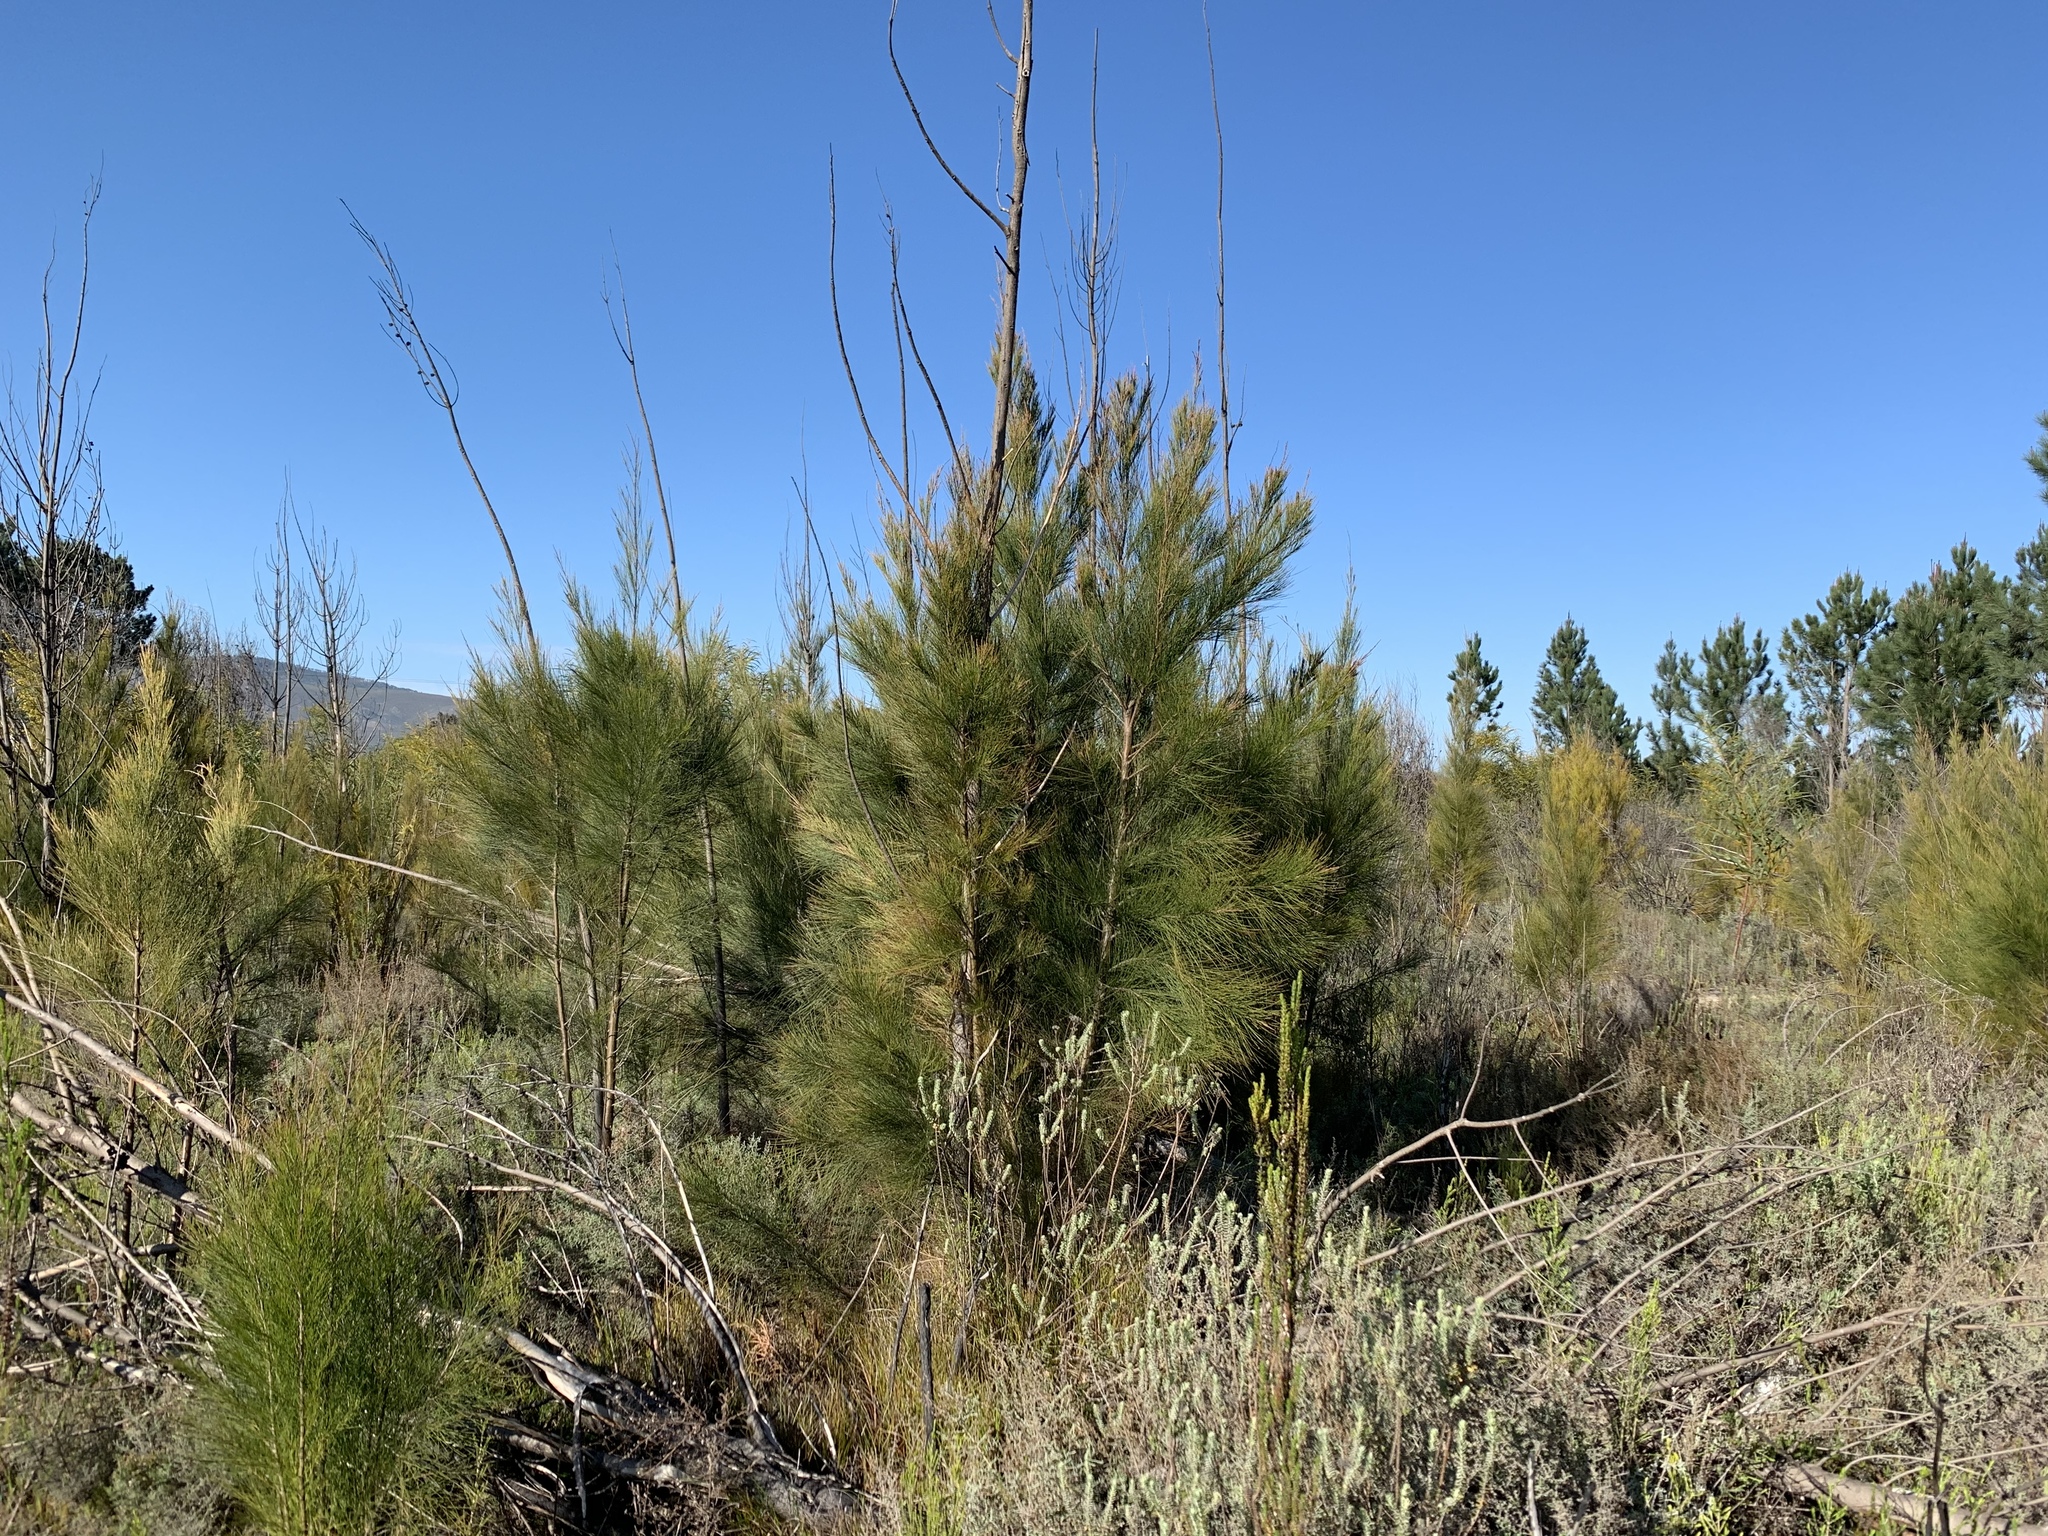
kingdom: Plantae
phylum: Tracheophyta
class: Magnoliopsida
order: Fagales
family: Casuarinaceae
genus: Casuarina
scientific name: Casuarina cunninghamiana
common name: River sheoak
